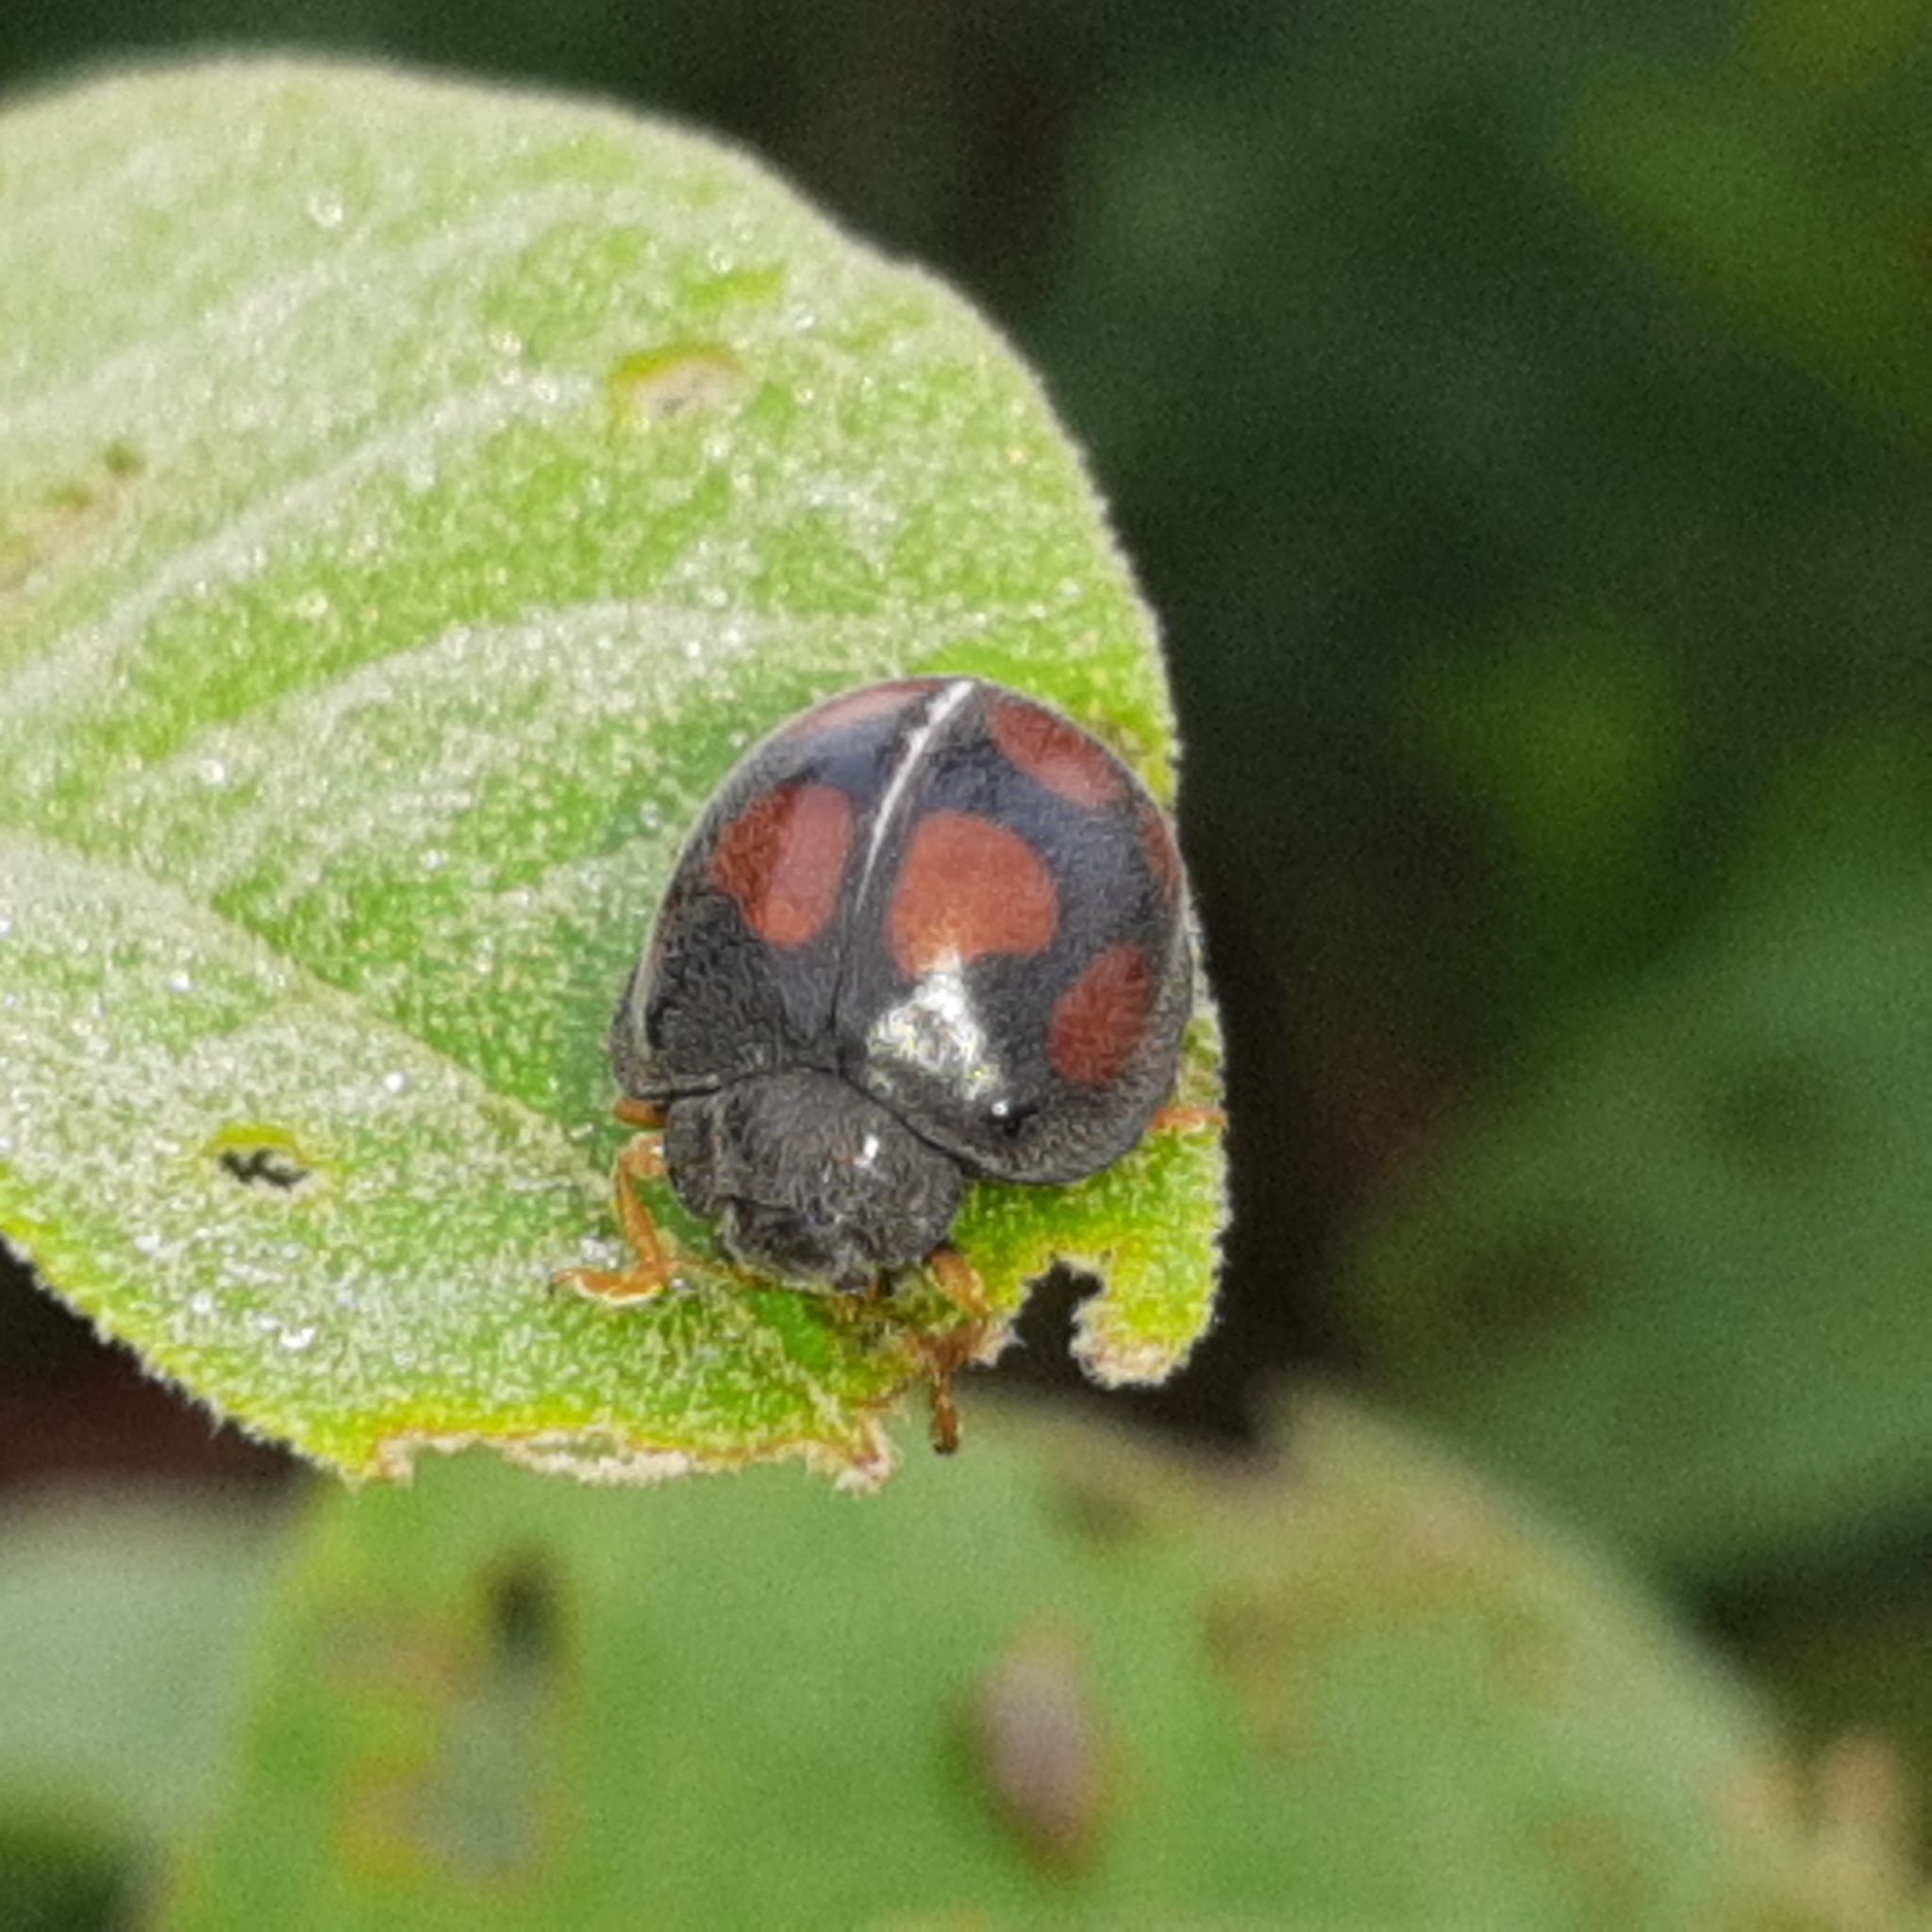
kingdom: Animalia
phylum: Arthropoda
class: Insecta
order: Coleoptera
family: Coccinellidae
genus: Epilachna
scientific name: Epilachna
